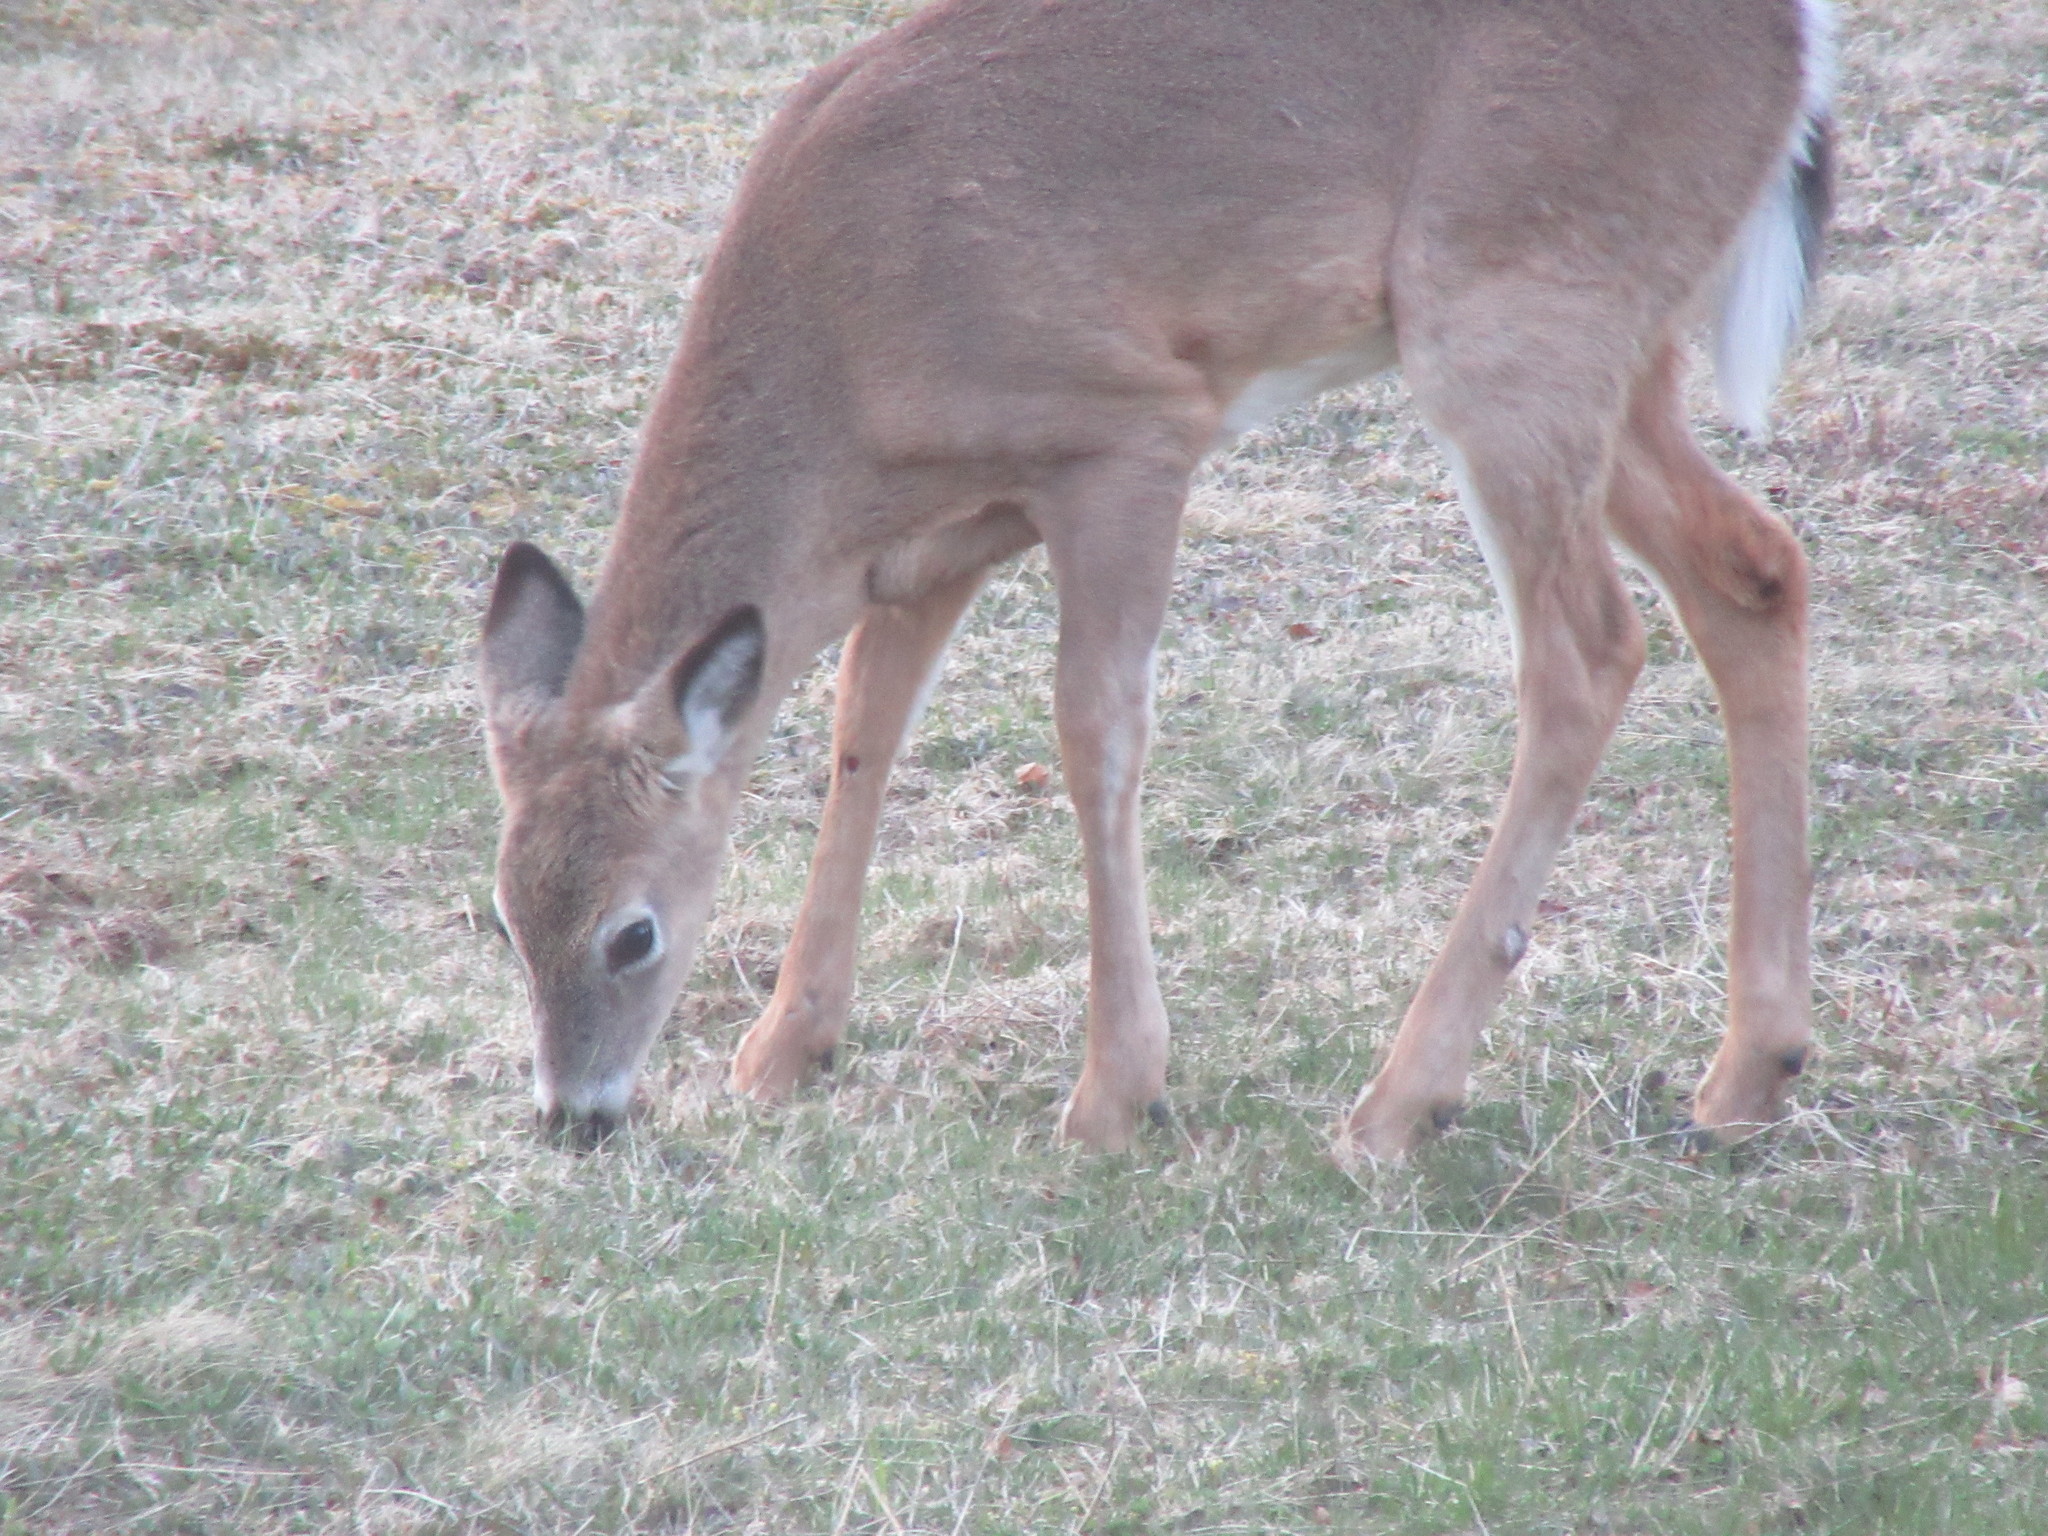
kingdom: Animalia
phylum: Chordata
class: Mammalia
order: Artiodactyla
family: Cervidae
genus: Odocoileus
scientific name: Odocoileus virginianus
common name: White-tailed deer
